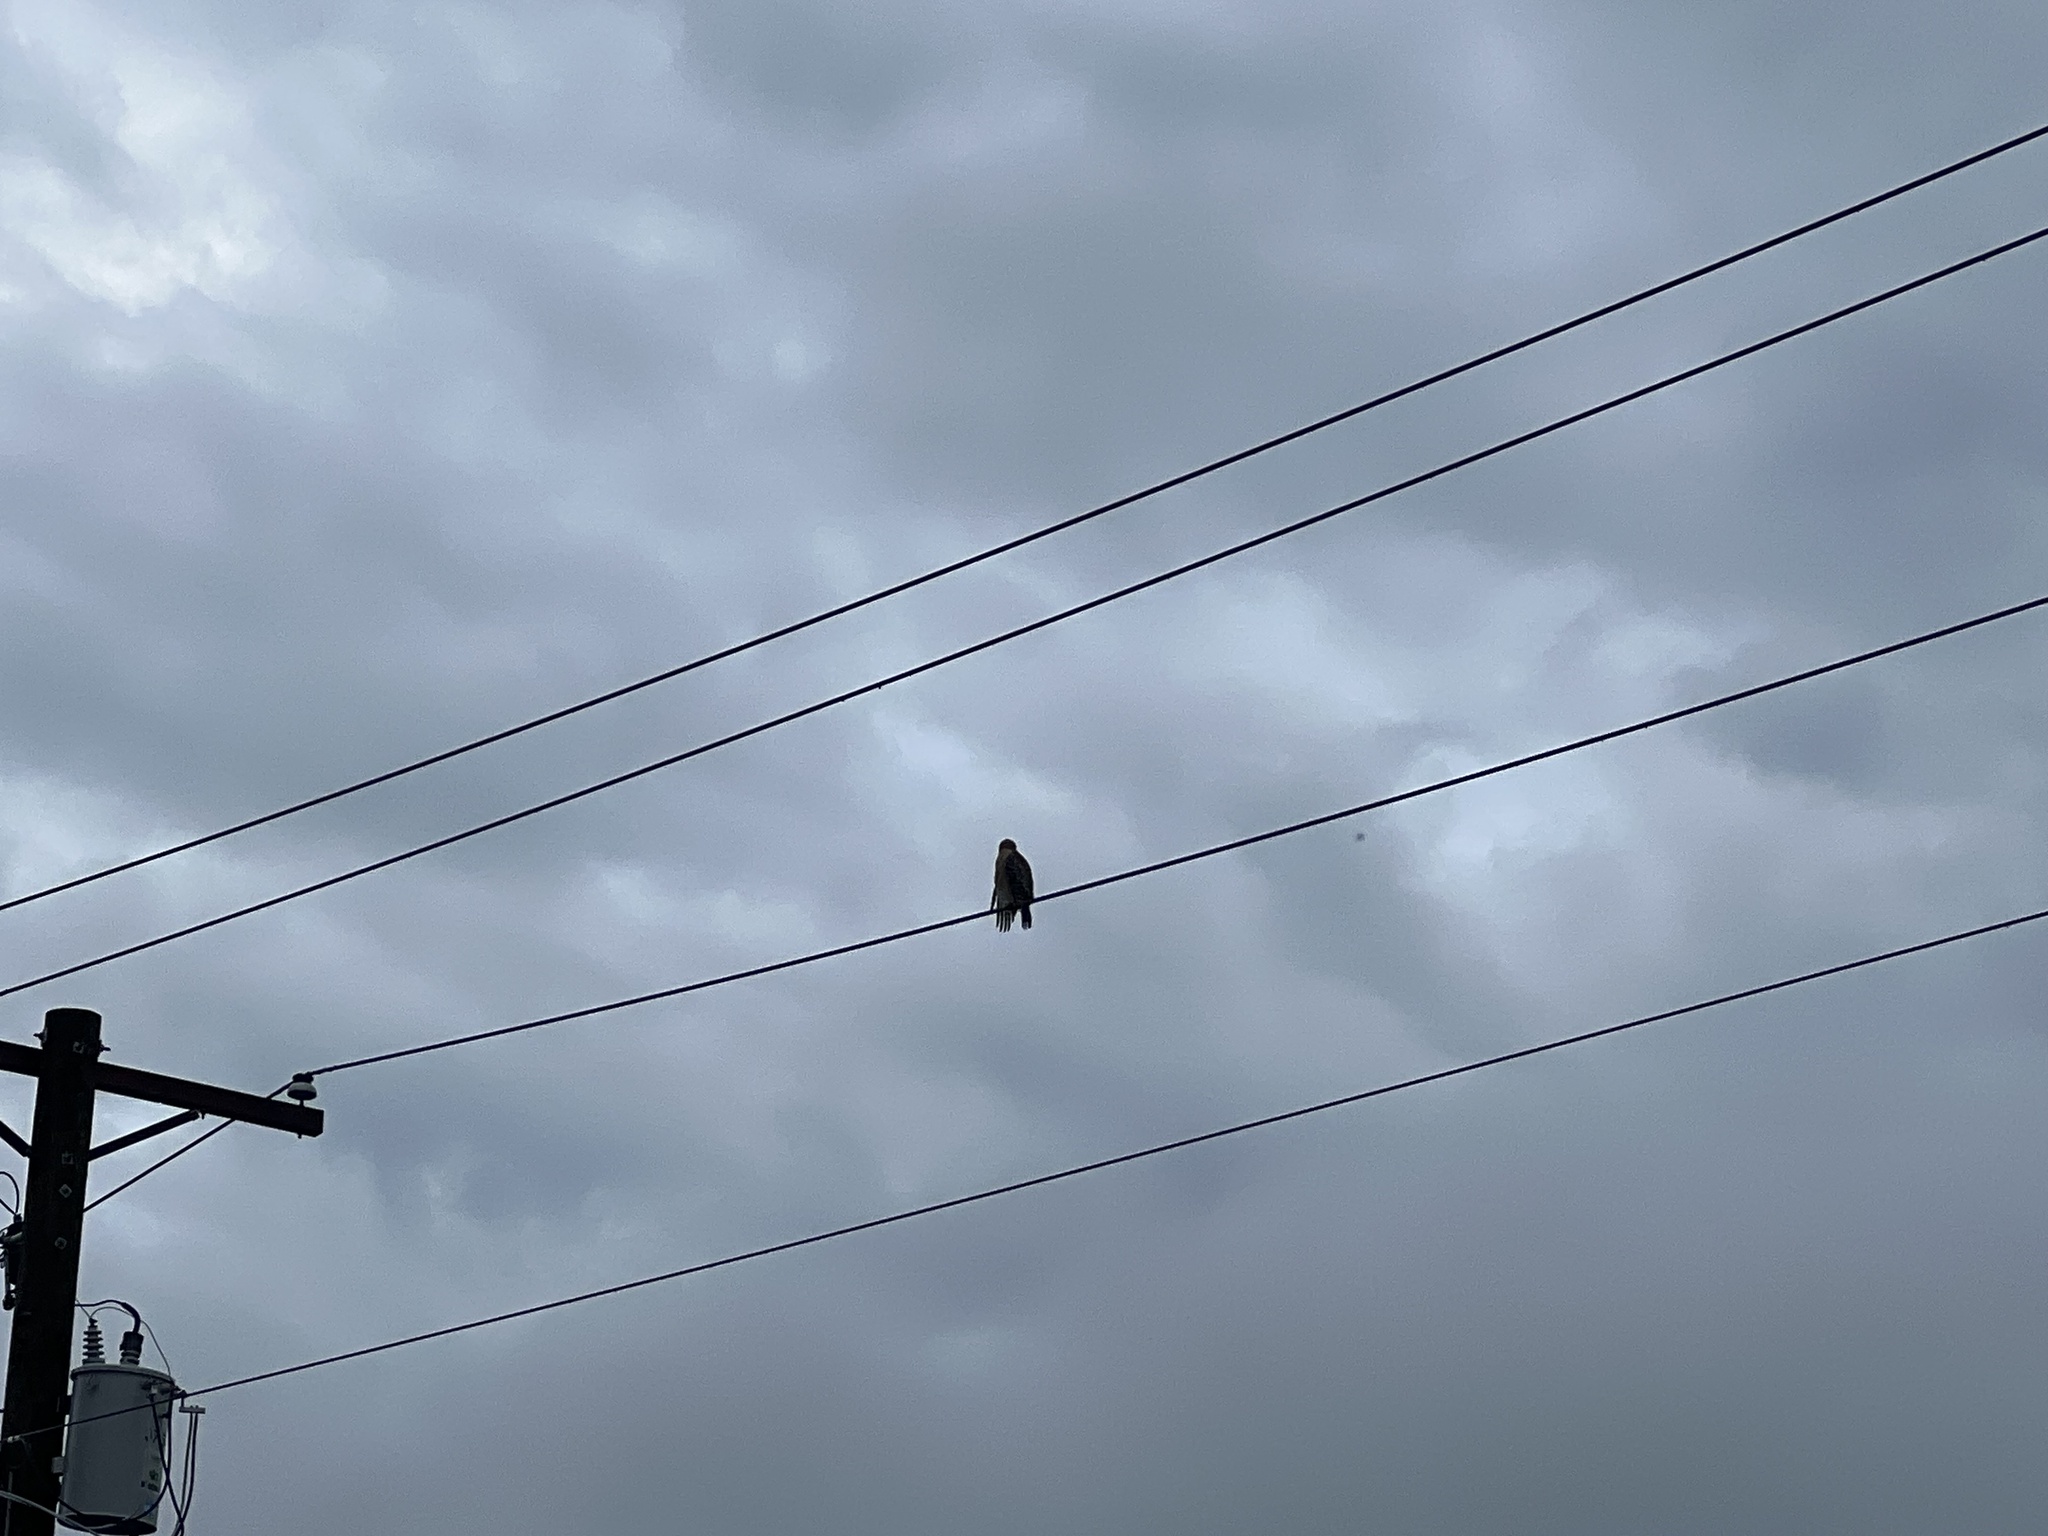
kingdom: Animalia
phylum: Chordata
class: Aves
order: Accipitriformes
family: Accipitridae
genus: Buteo
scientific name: Buteo lineatus
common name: Red-shouldered hawk
